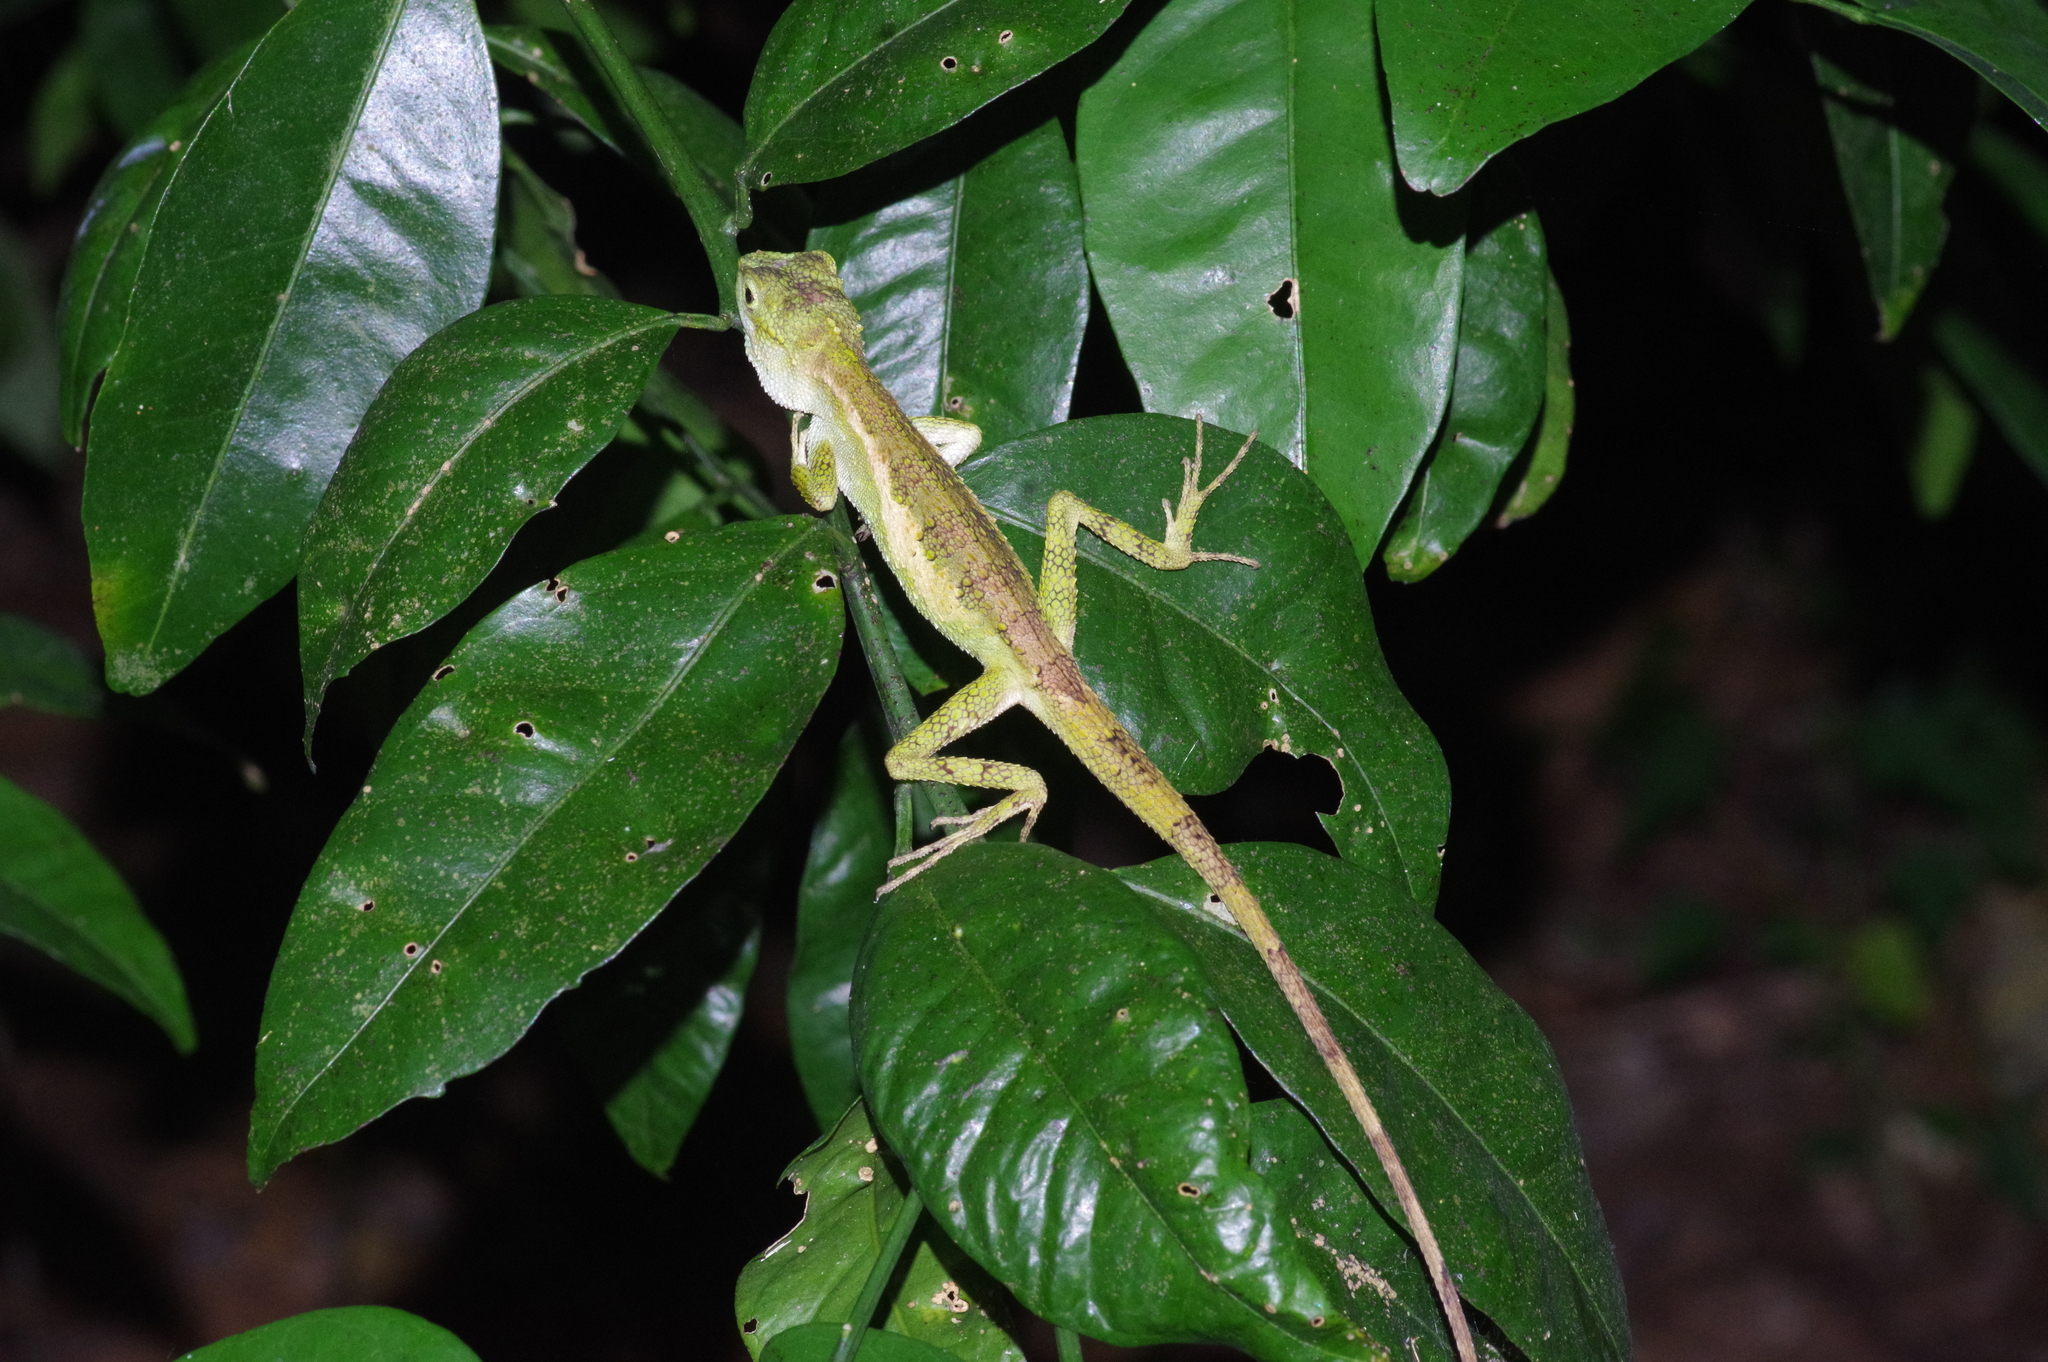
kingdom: Fungi
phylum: Basidiomycota
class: Agaricomycetes
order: Boletales
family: Diplocystidiaceae
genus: Diploderma
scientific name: Diploderma polygonatum
